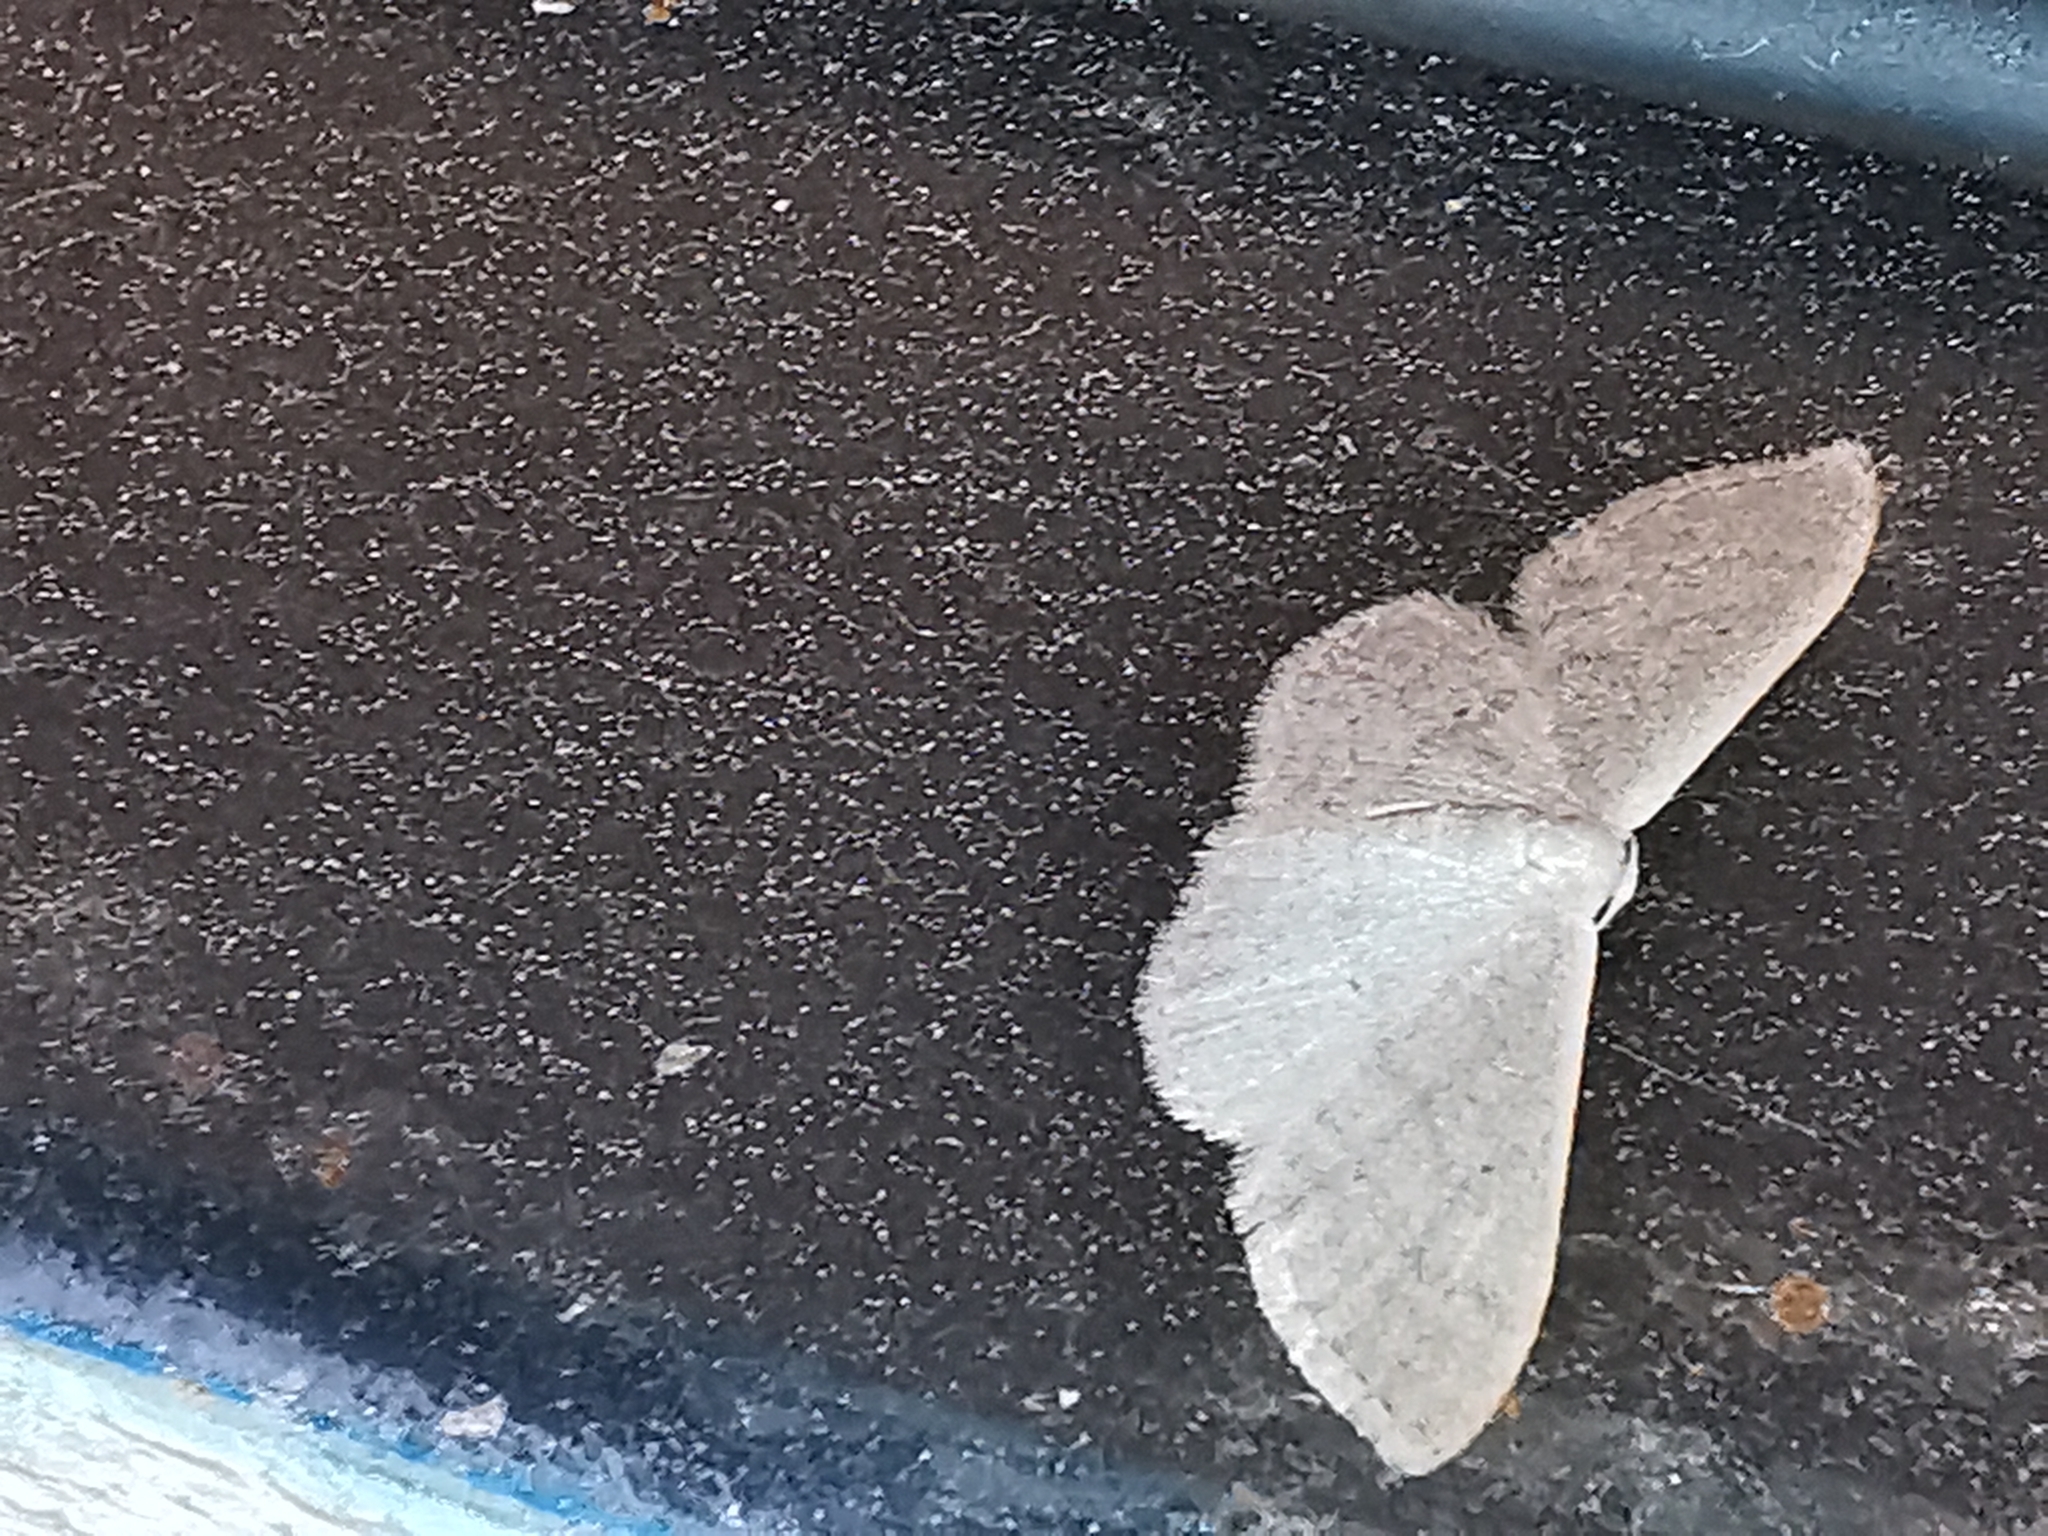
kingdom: Animalia
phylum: Arthropoda
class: Insecta
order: Lepidoptera
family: Geometridae
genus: Idaea
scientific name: Idaea distinctaria
